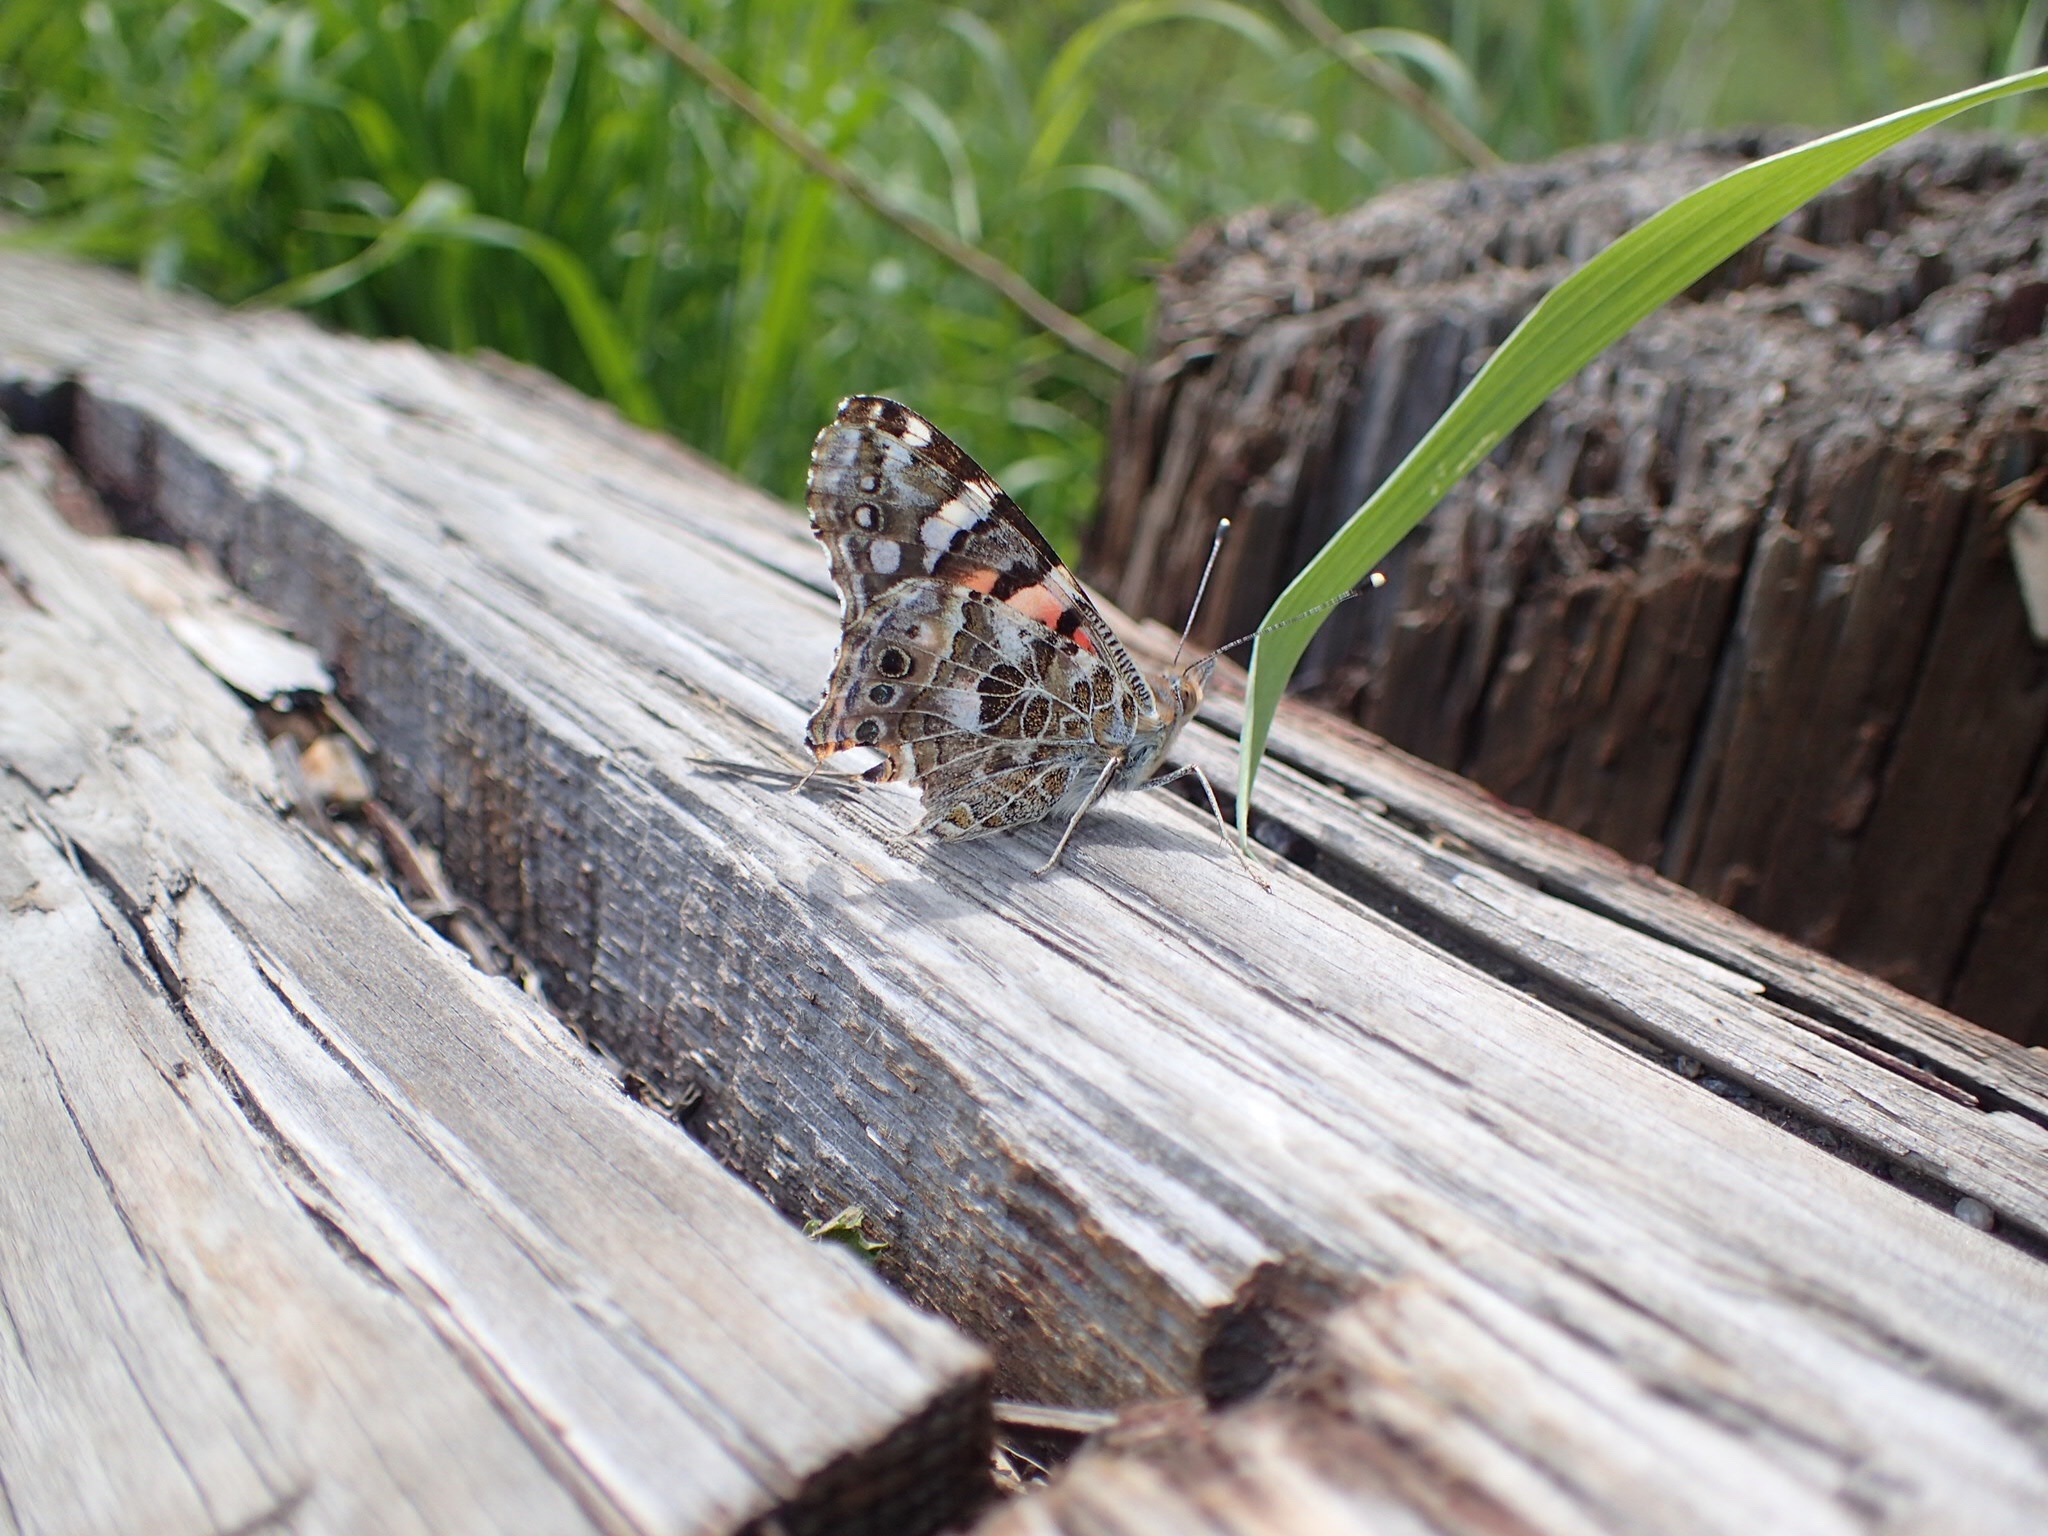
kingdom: Animalia
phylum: Arthropoda
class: Insecta
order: Lepidoptera
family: Nymphalidae
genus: Vanessa
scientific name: Vanessa cardui
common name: Painted lady
